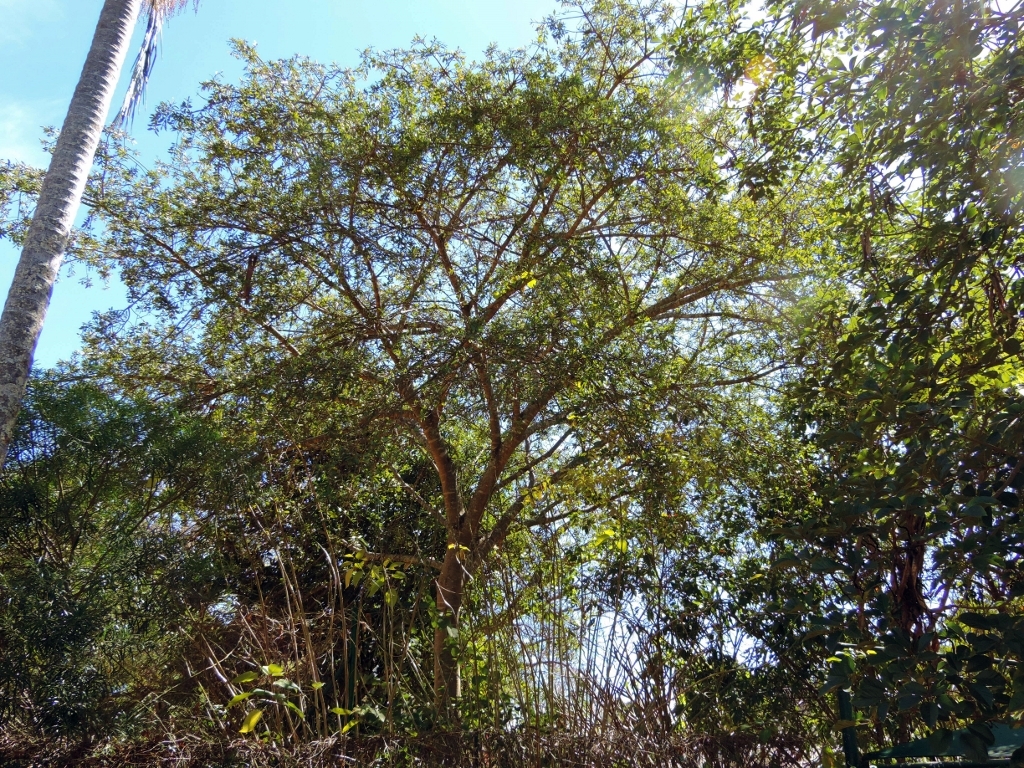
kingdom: Plantae
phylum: Tracheophyta
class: Magnoliopsida
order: Rosales
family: Moraceae
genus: Ficus
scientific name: Ficus thonningii
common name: Fig
